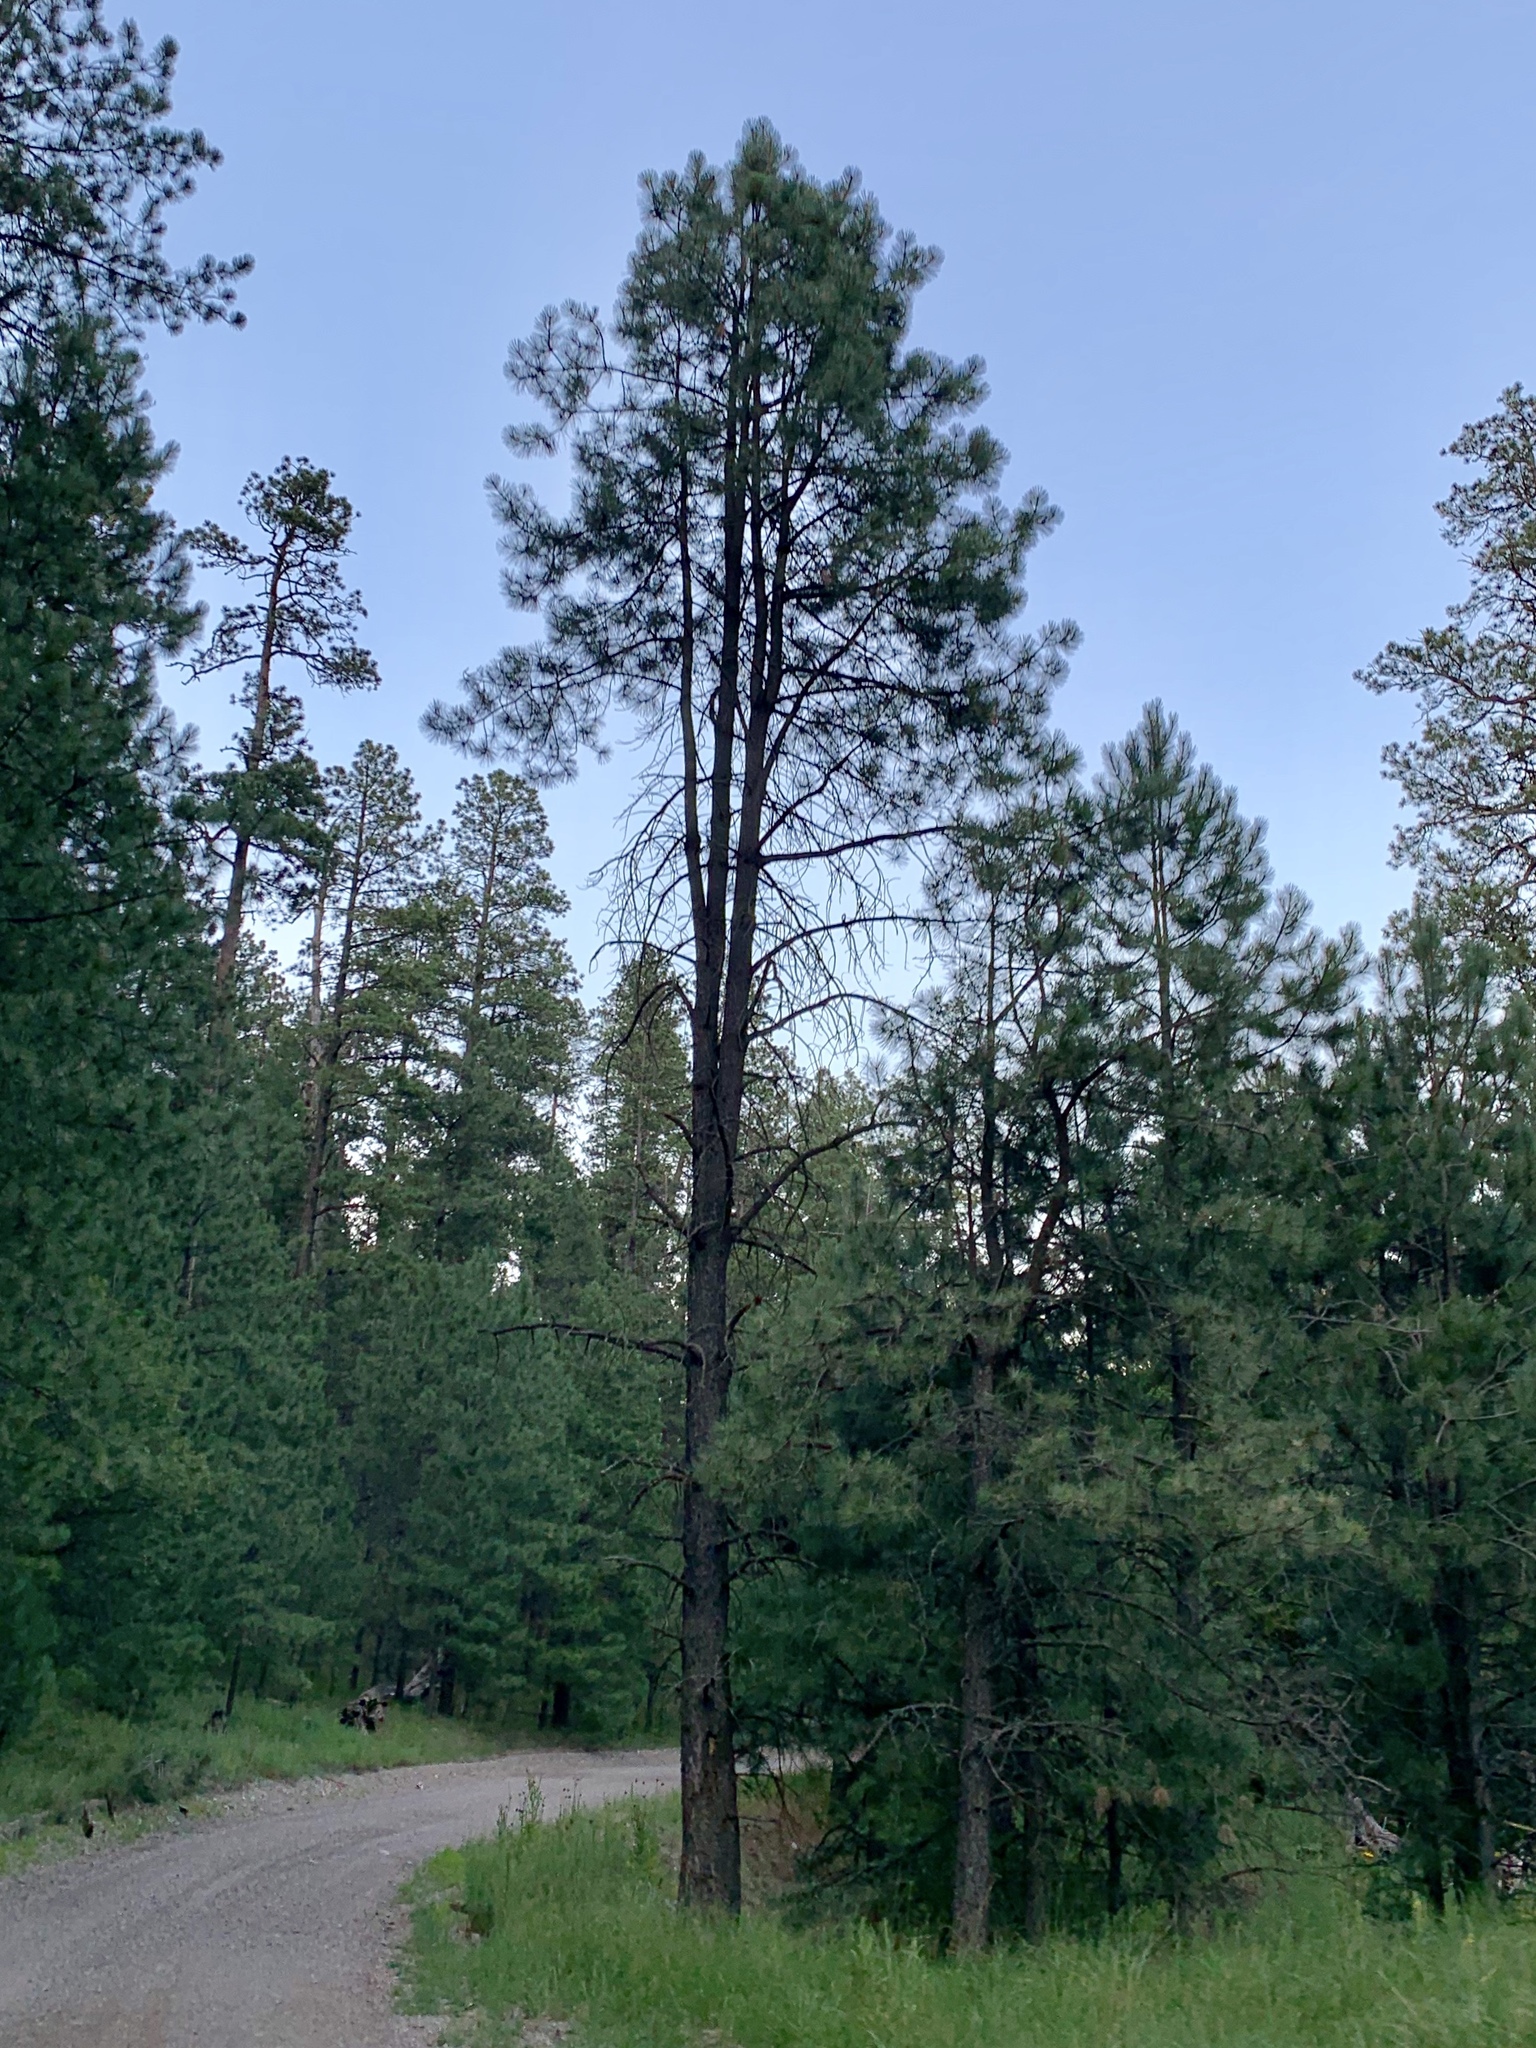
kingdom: Plantae
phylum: Tracheophyta
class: Pinopsida
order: Pinales
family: Pinaceae
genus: Pinus
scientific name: Pinus ponderosa
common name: Western yellow-pine
